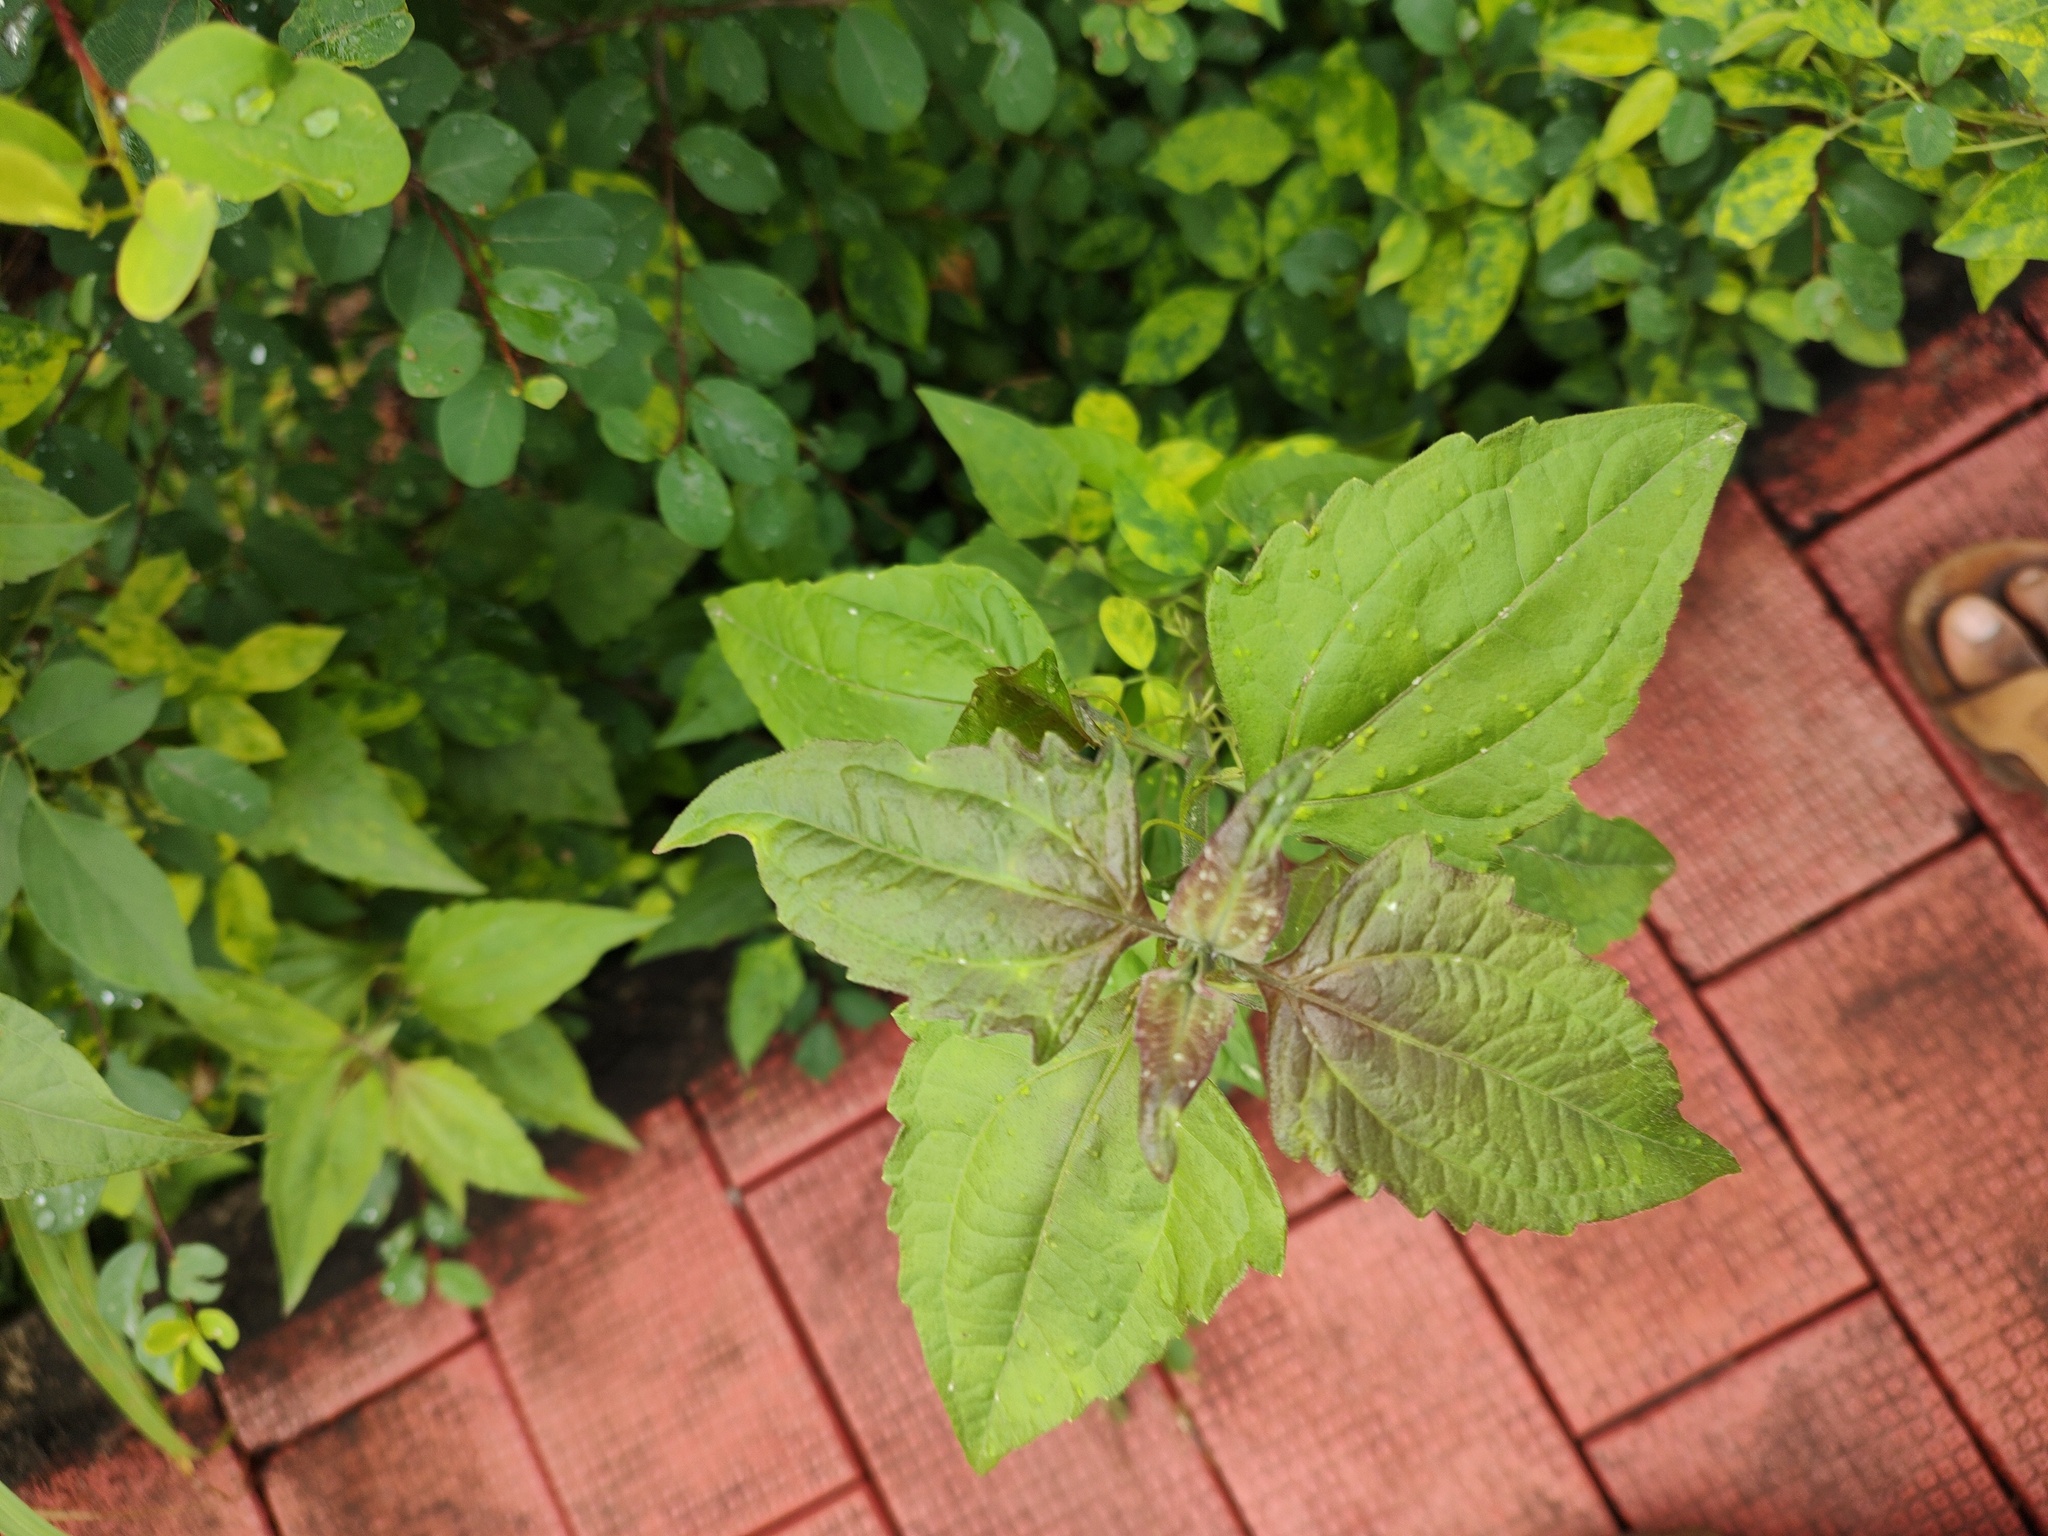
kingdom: Plantae
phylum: Tracheophyta
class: Magnoliopsida
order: Asterales
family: Asteraceae
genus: Chromolaena
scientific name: Chromolaena odorata
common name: Siamweed
